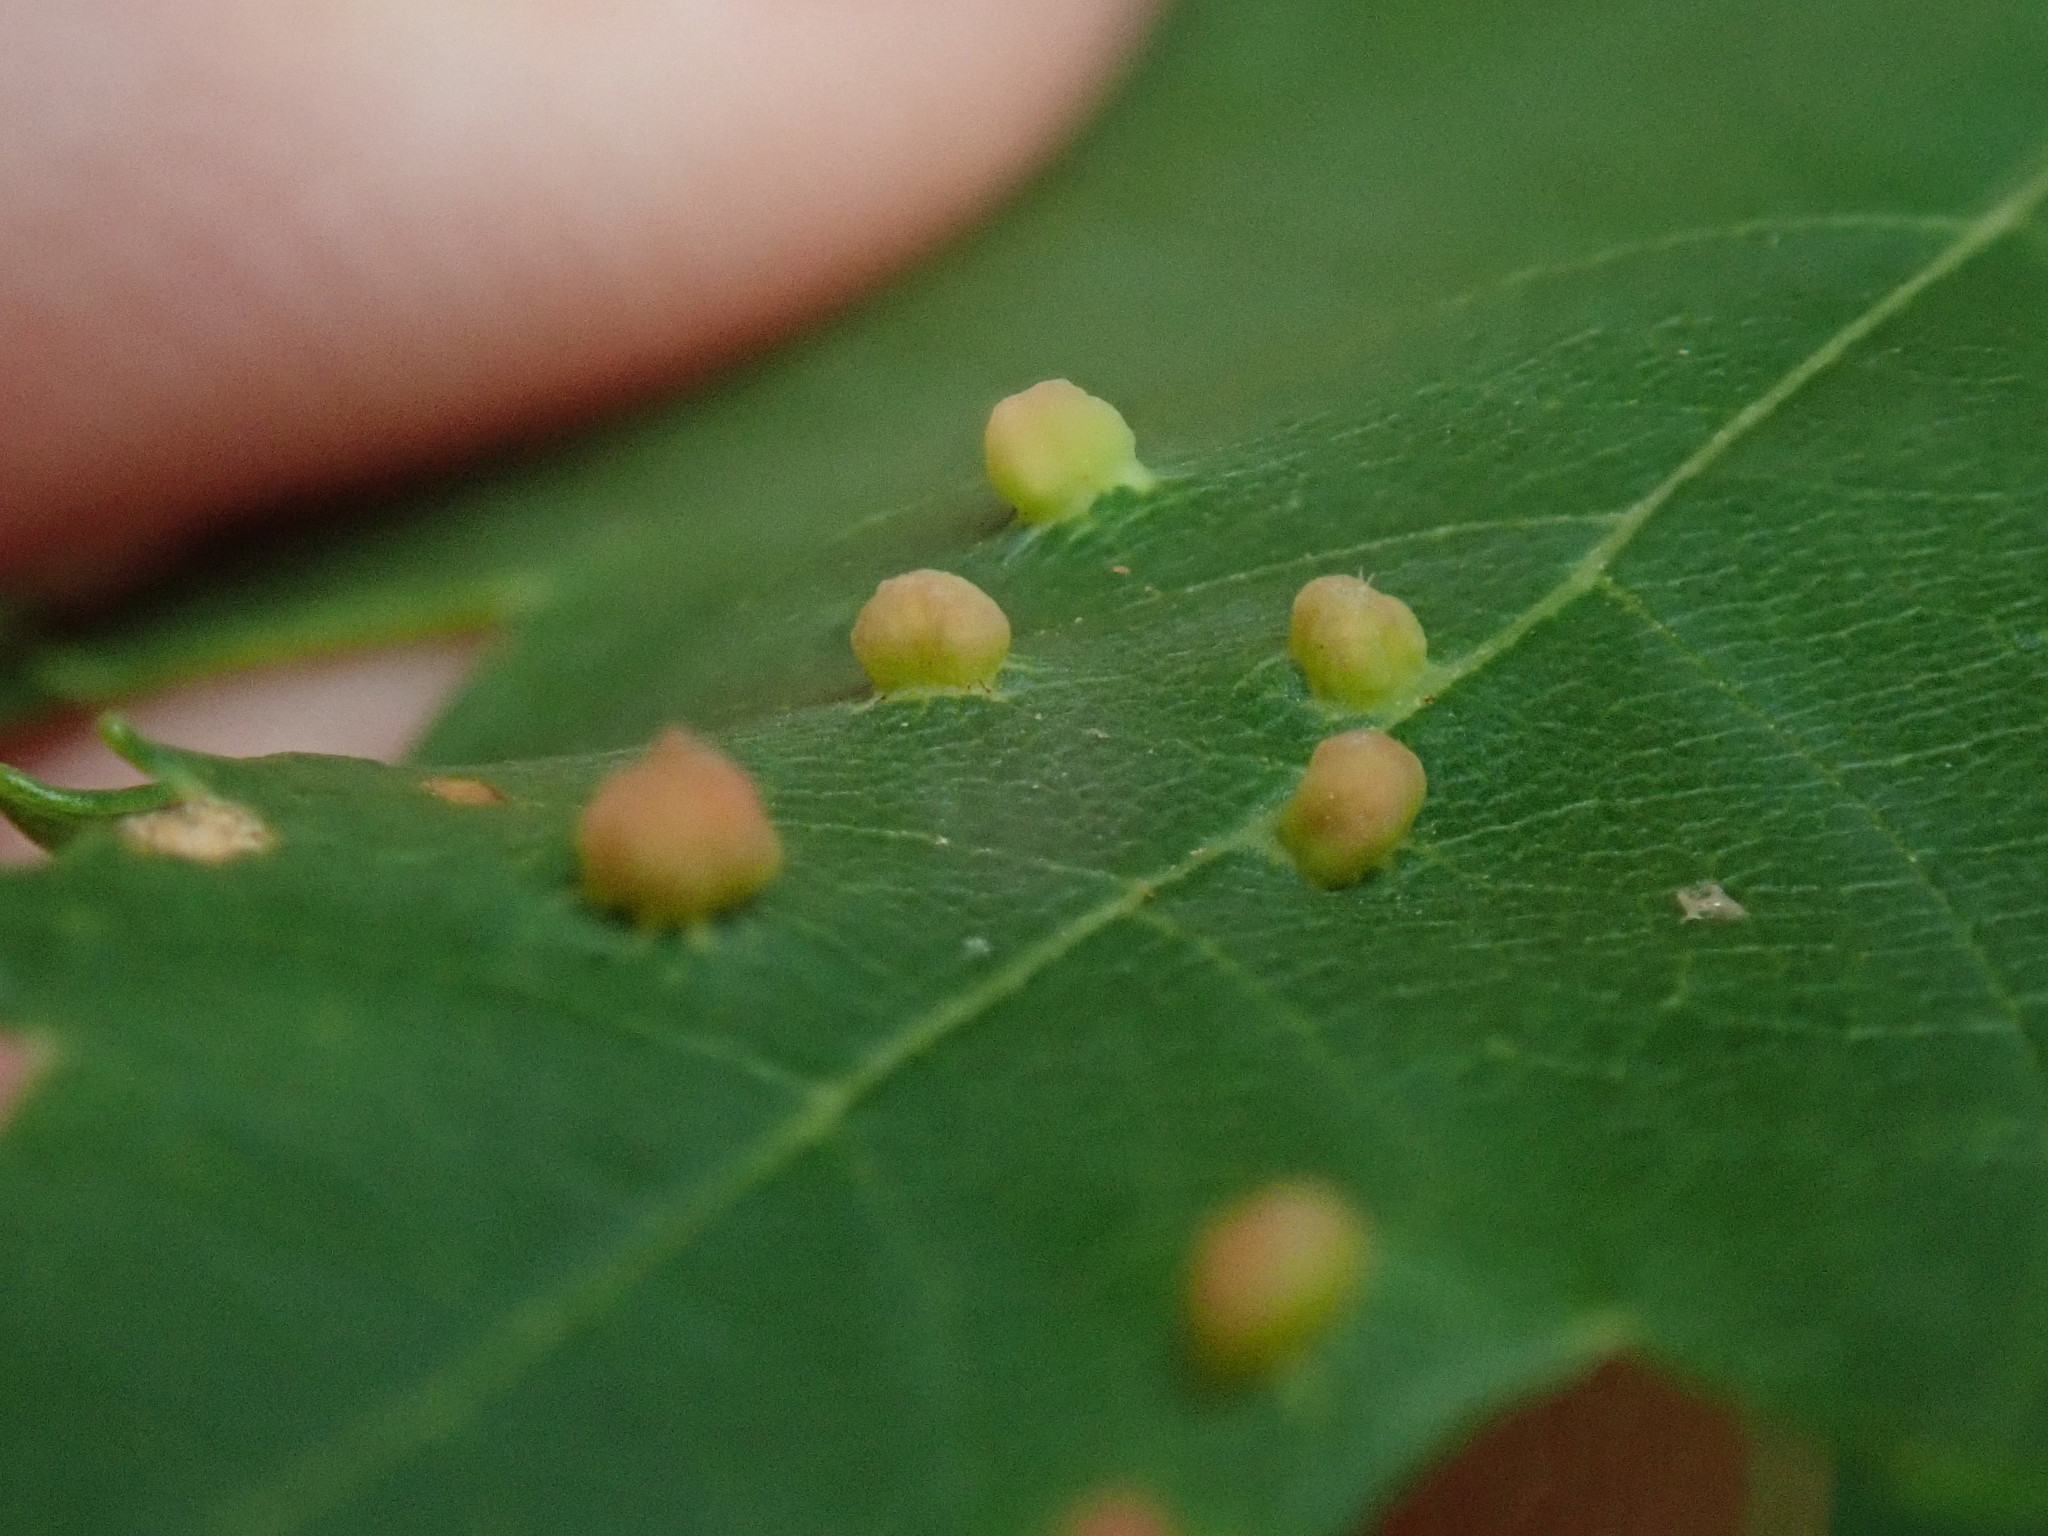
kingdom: Animalia
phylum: Arthropoda
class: Arachnida
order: Trombidiformes
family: Eriophyidae
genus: Vasates
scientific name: Vasates quadripedes
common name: Maple bladder gall mite
